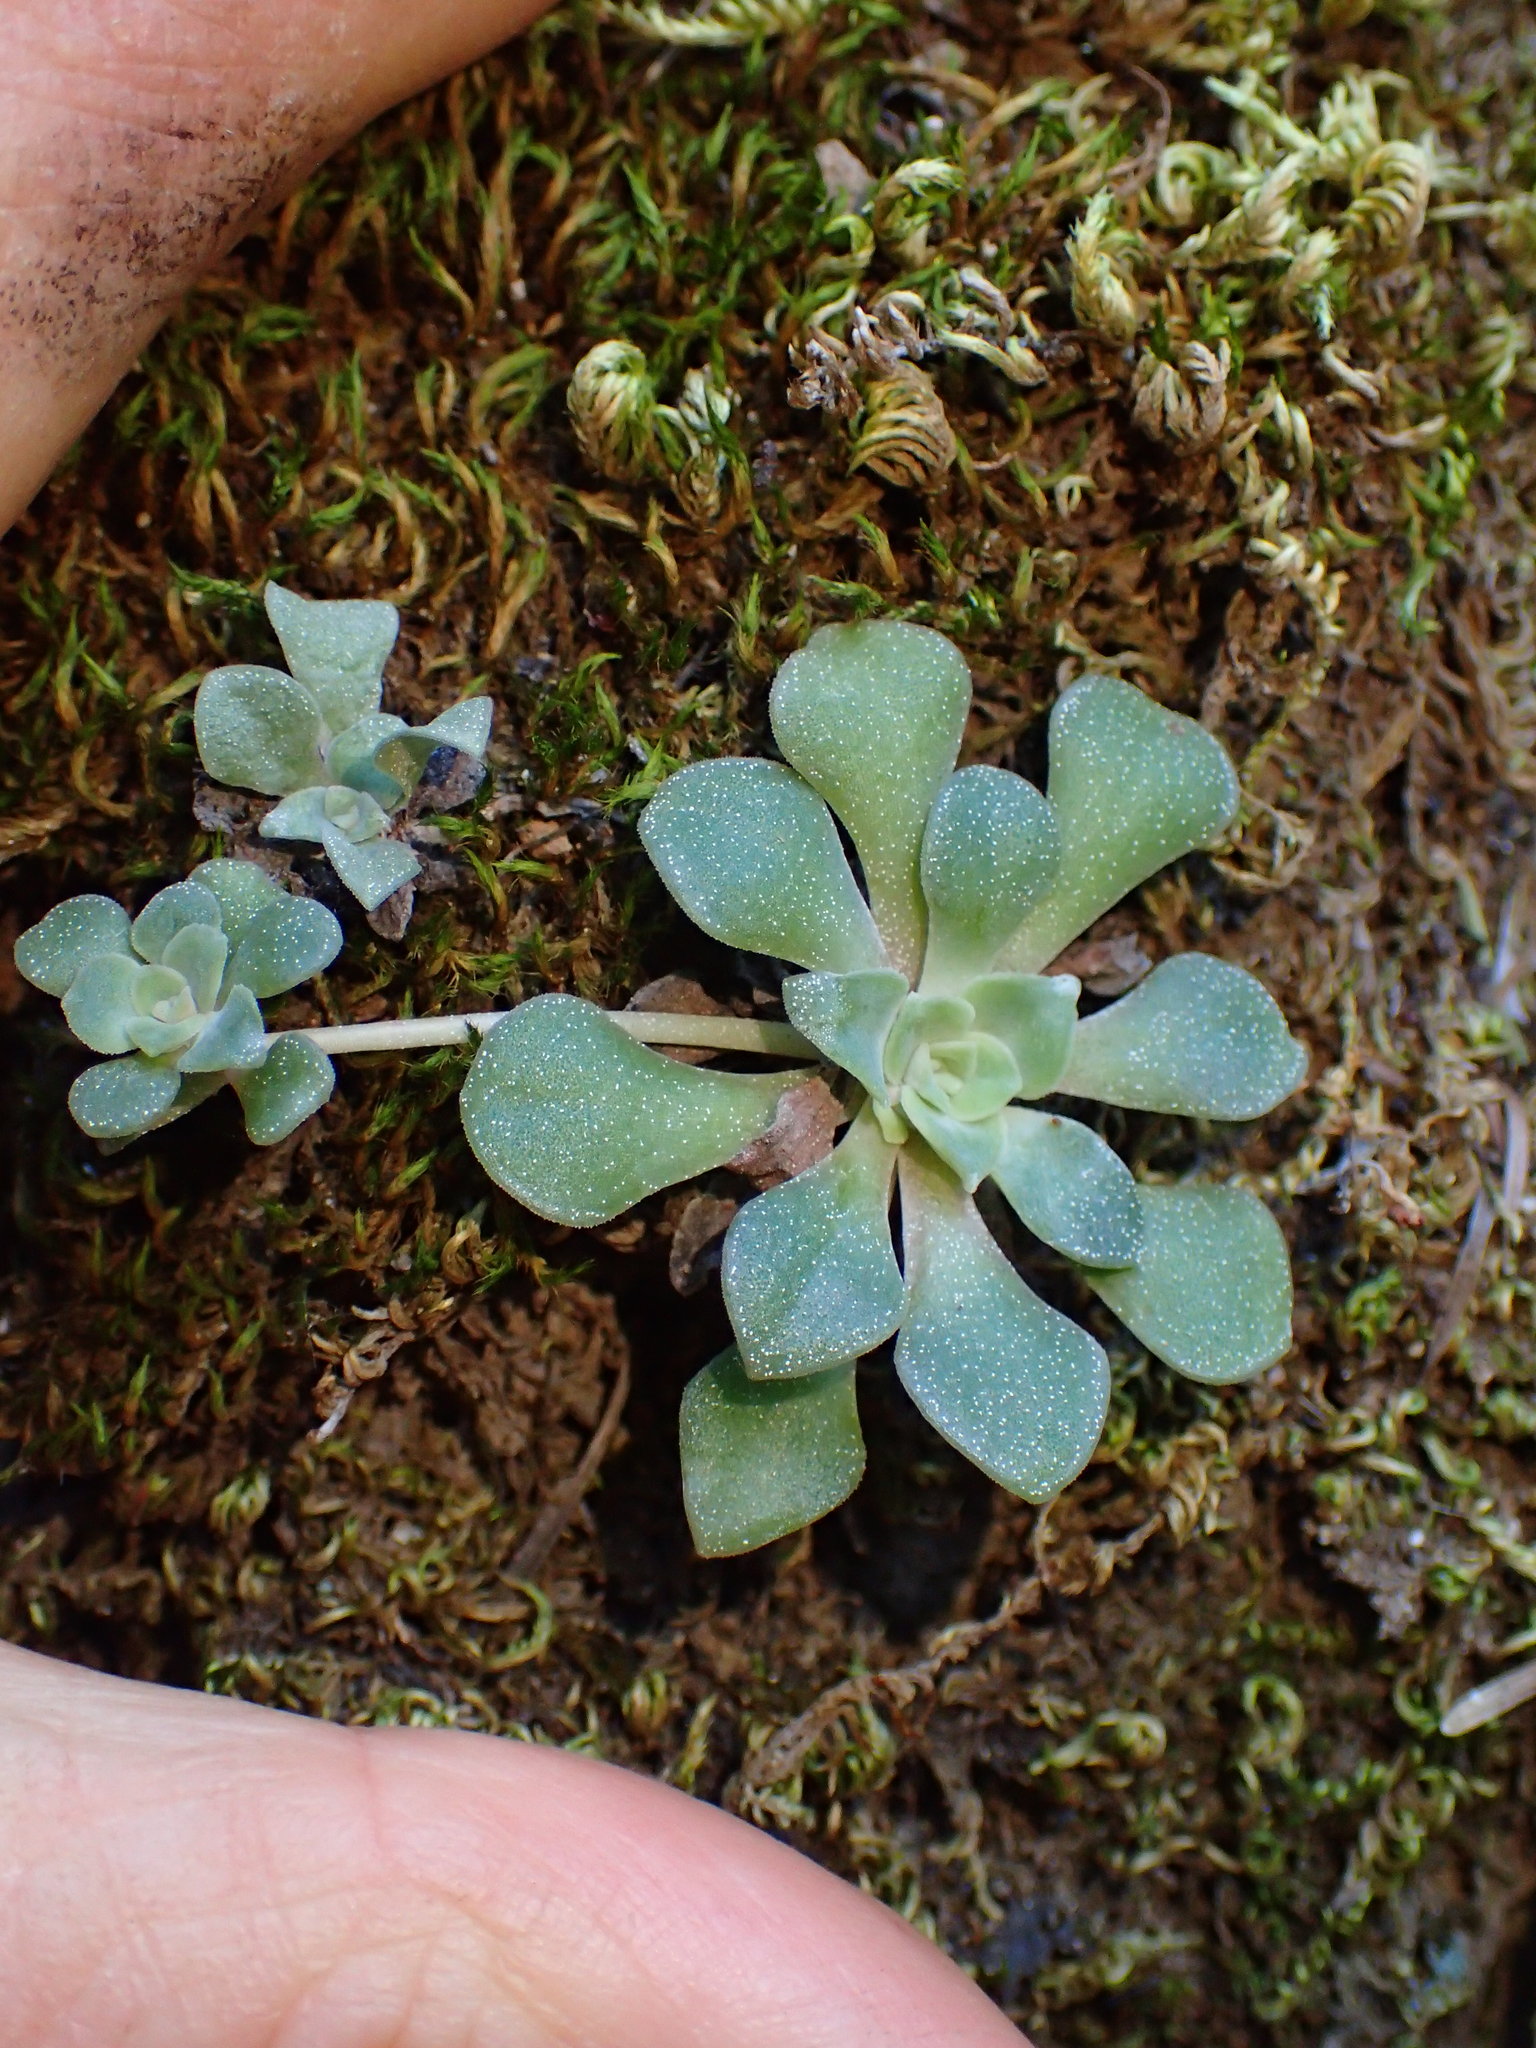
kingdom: Plantae
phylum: Tracheophyta
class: Magnoliopsida
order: Saxifragales
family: Crassulaceae
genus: Sedum
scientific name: Sedum spathulifolium
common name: Colorado stonecrop
